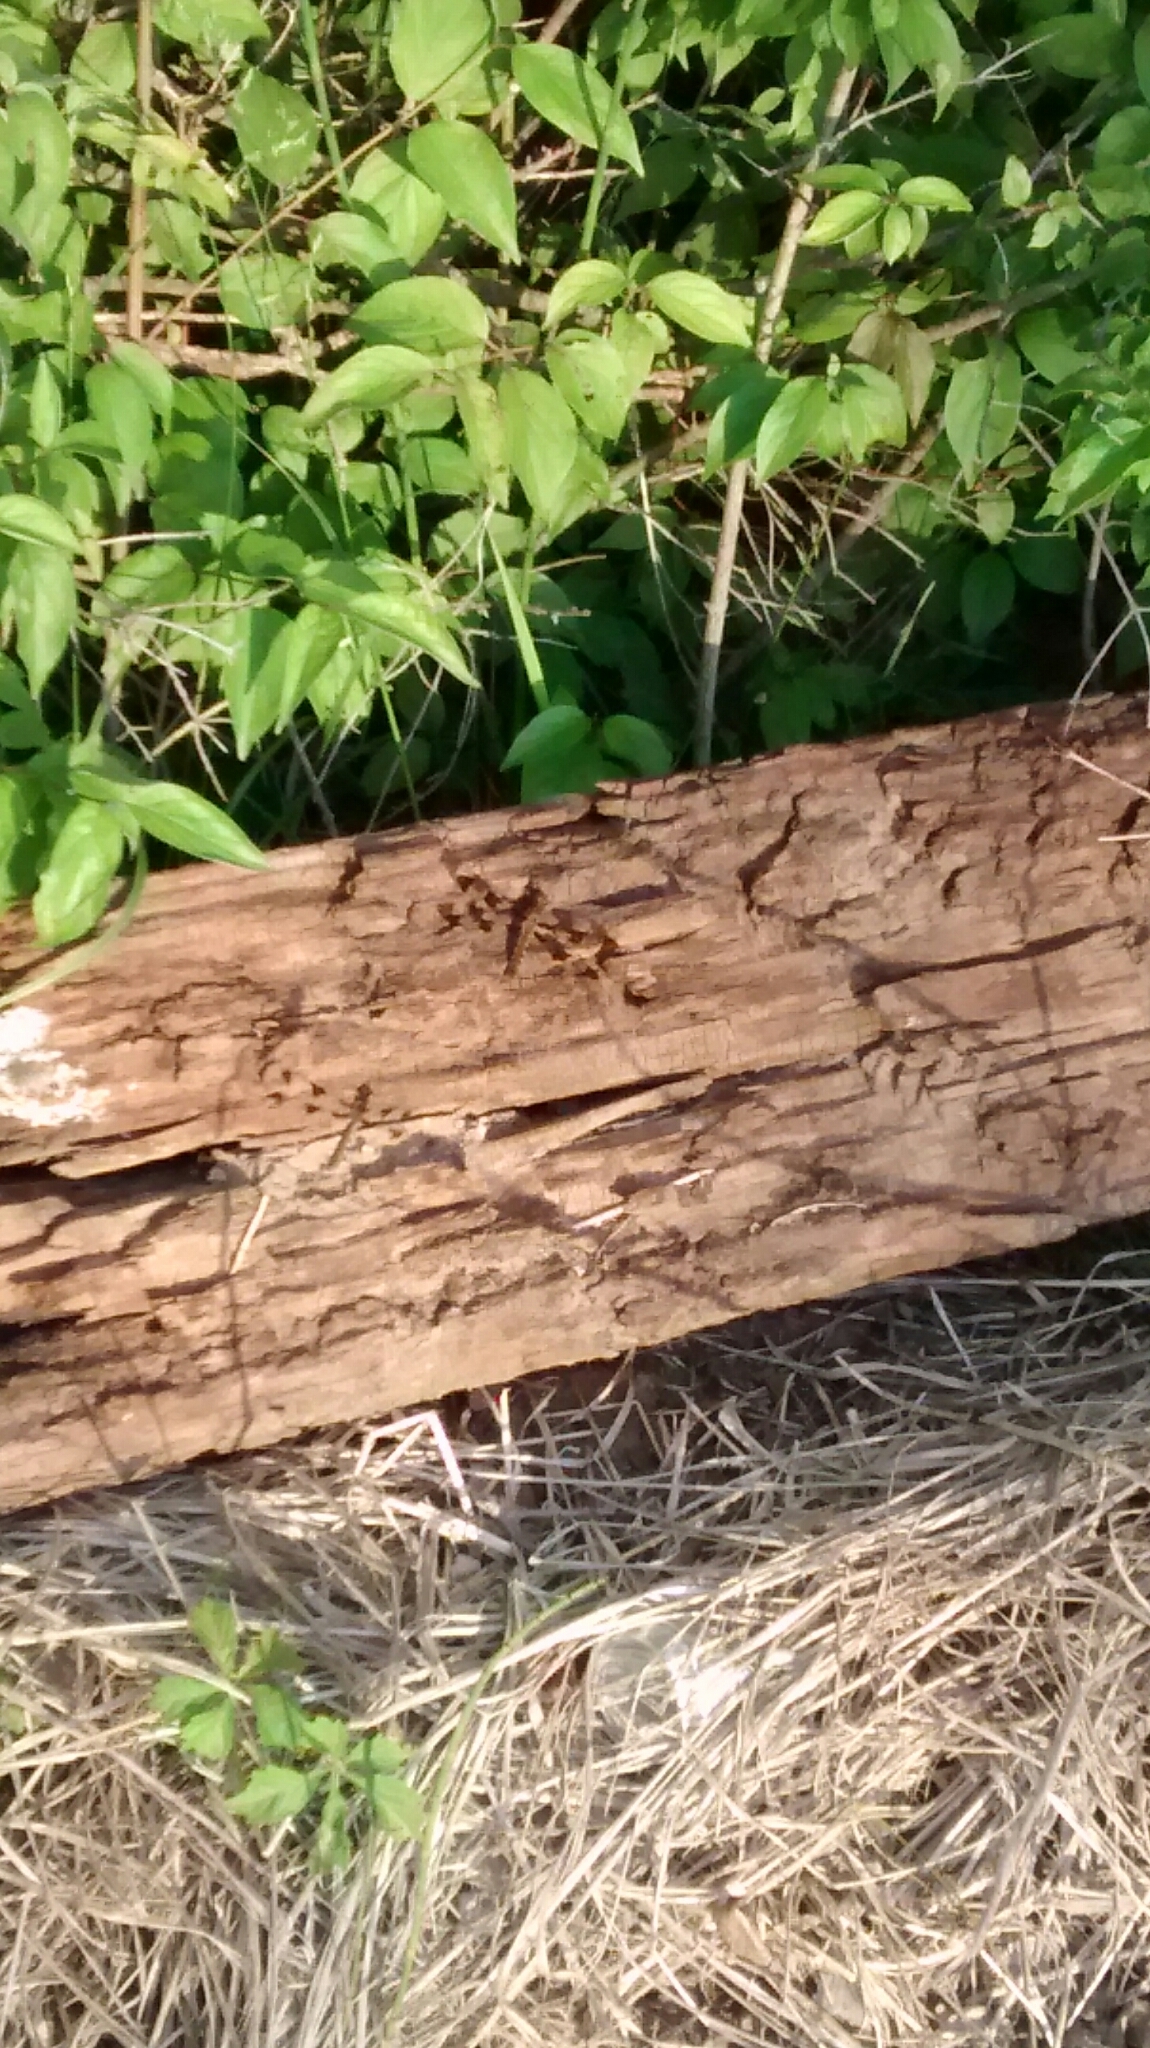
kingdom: Animalia
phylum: Arthropoda
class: Insecta
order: Odonata
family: Libellulidae
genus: Plathemis
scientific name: Plathemis lydia
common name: Common whitetail
